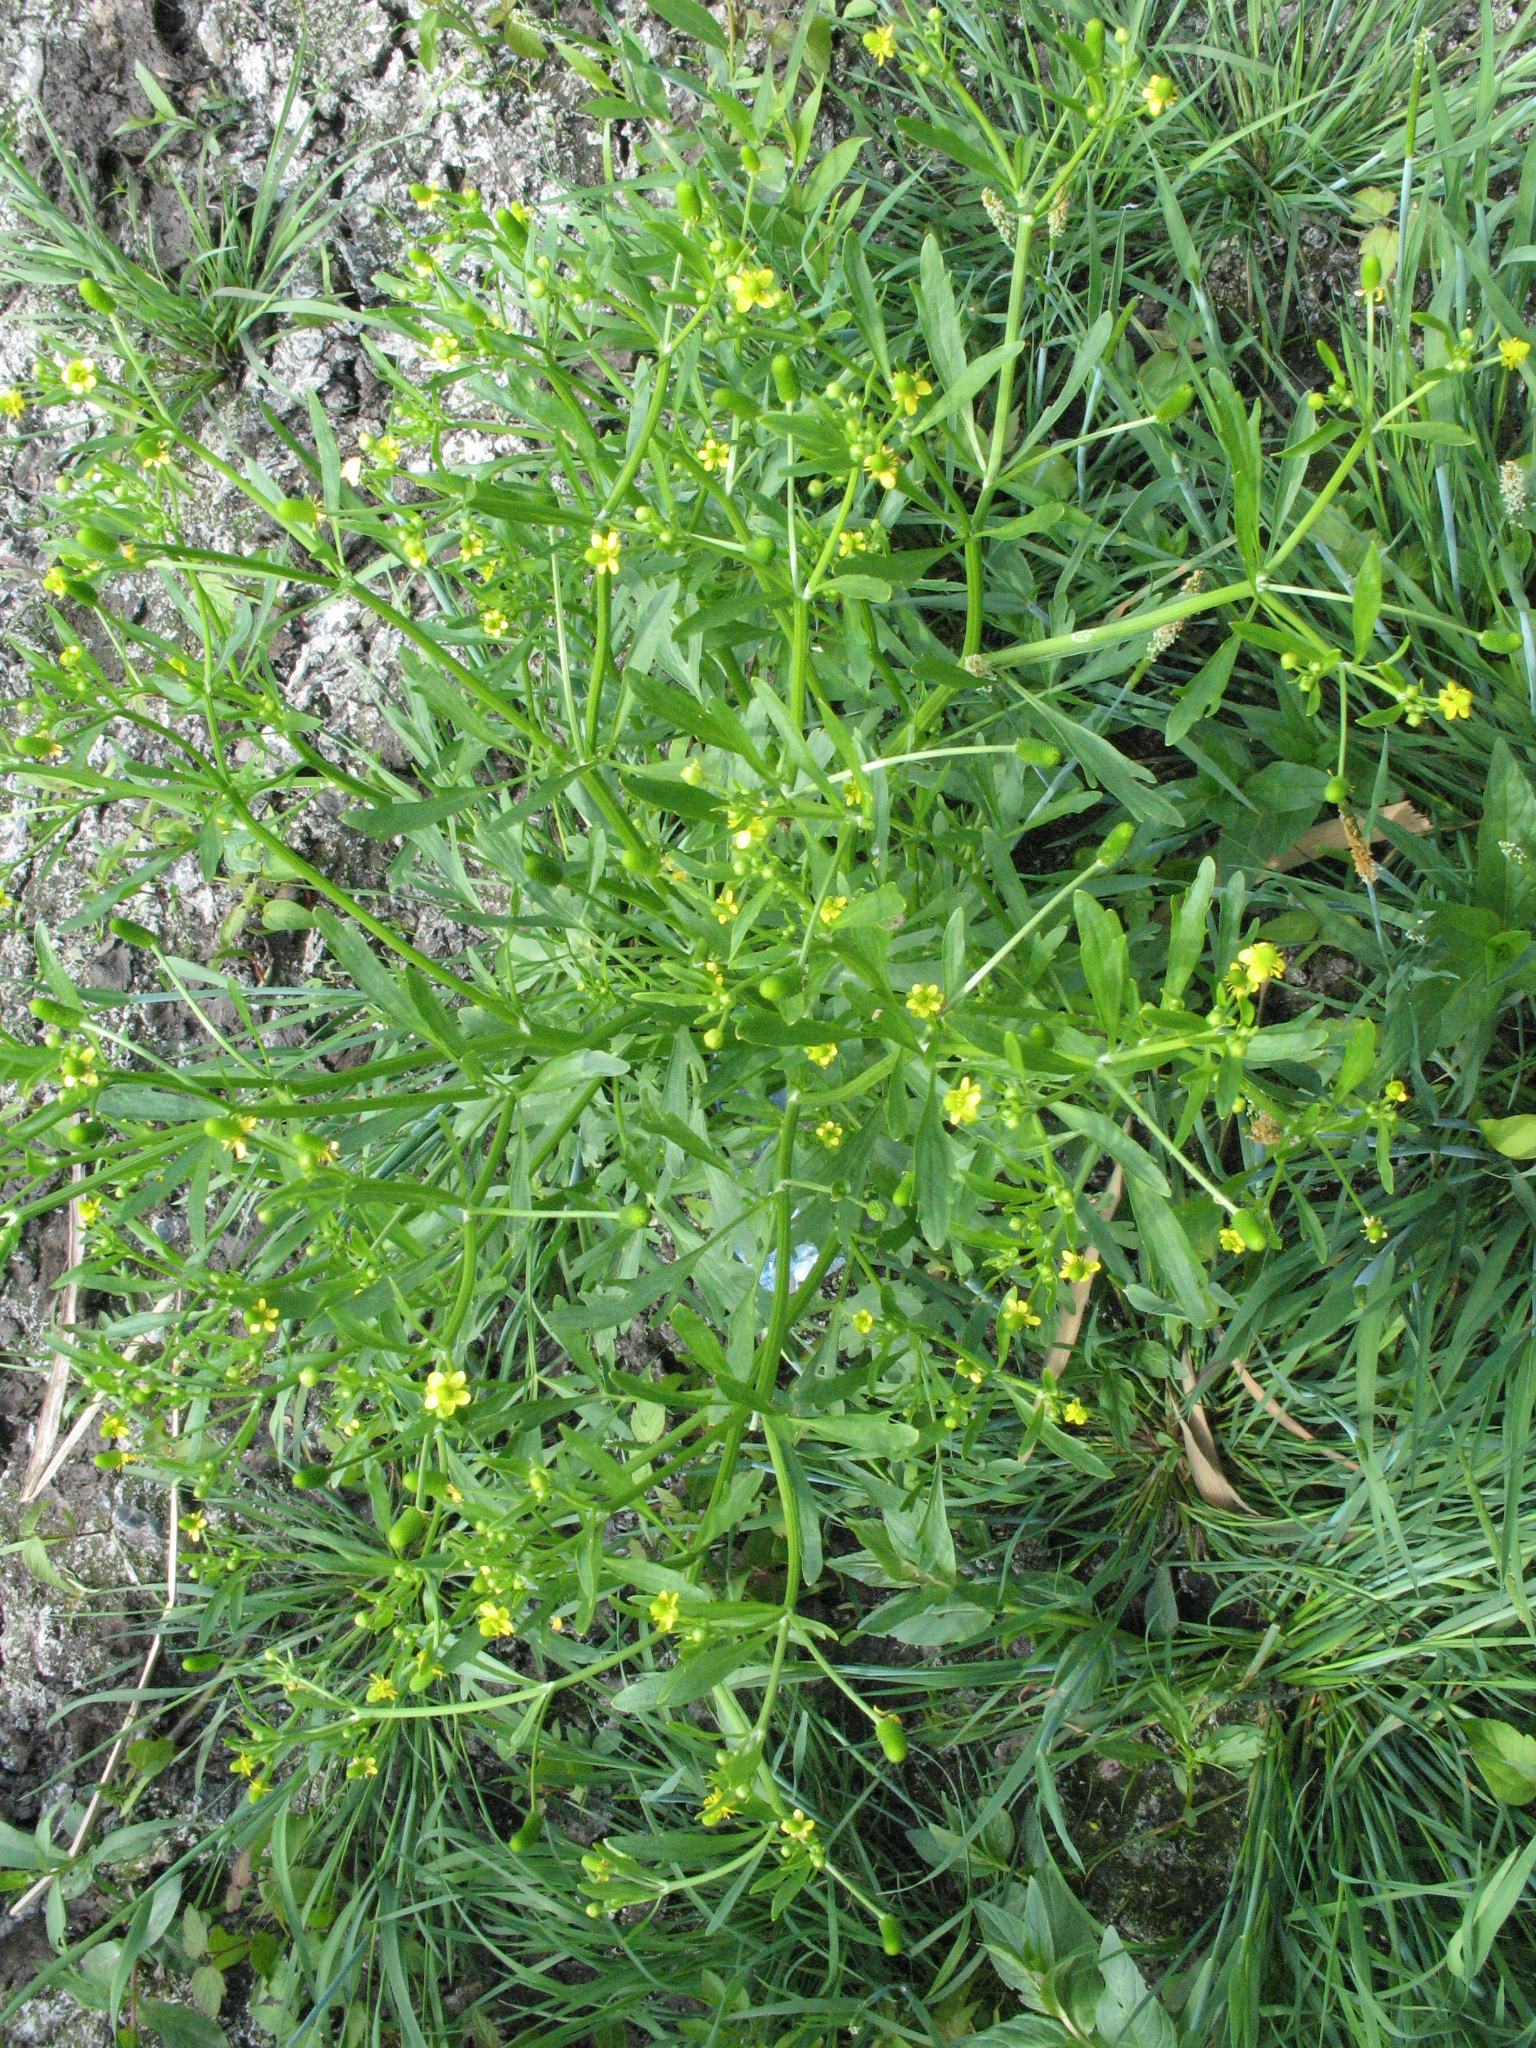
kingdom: Plantae
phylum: Tracheophyta
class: Magnoliopsida
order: Ranunculales
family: Ranunculaceae
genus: Ranunculus
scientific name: Ranunculus sceleratus
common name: Celery-leaved buttercup
